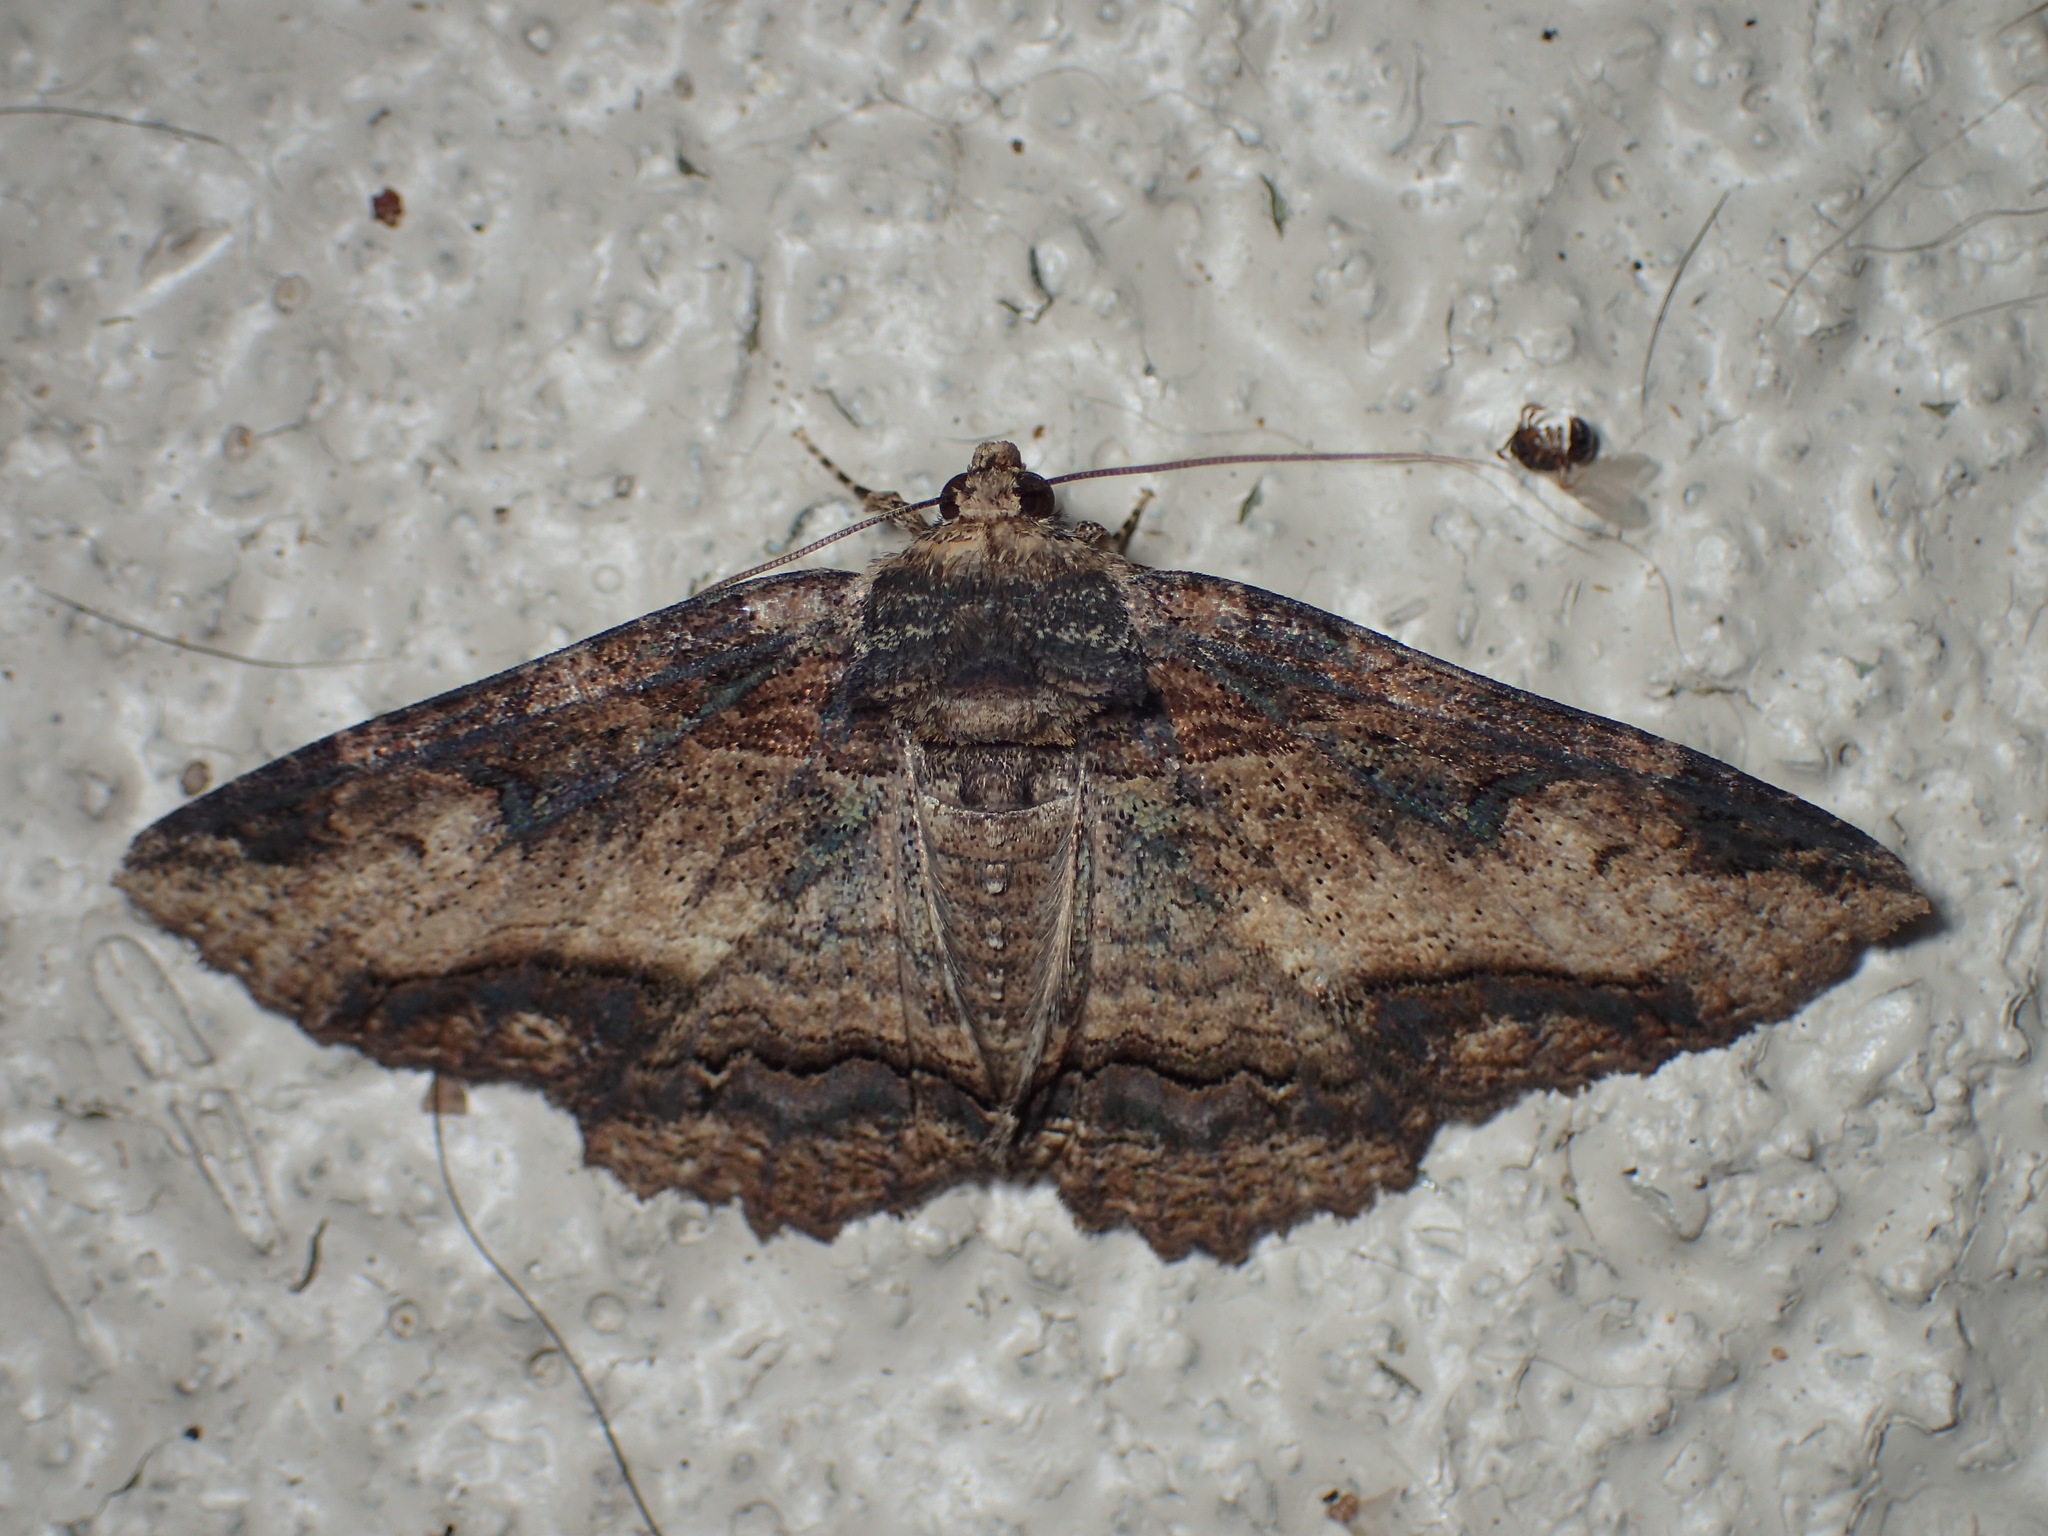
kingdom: Animalia
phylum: Arthropoda
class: Insecta
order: Lepidoptera
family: Erebidae
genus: Zale
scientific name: Zale minerea
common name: Colorful zale moth
